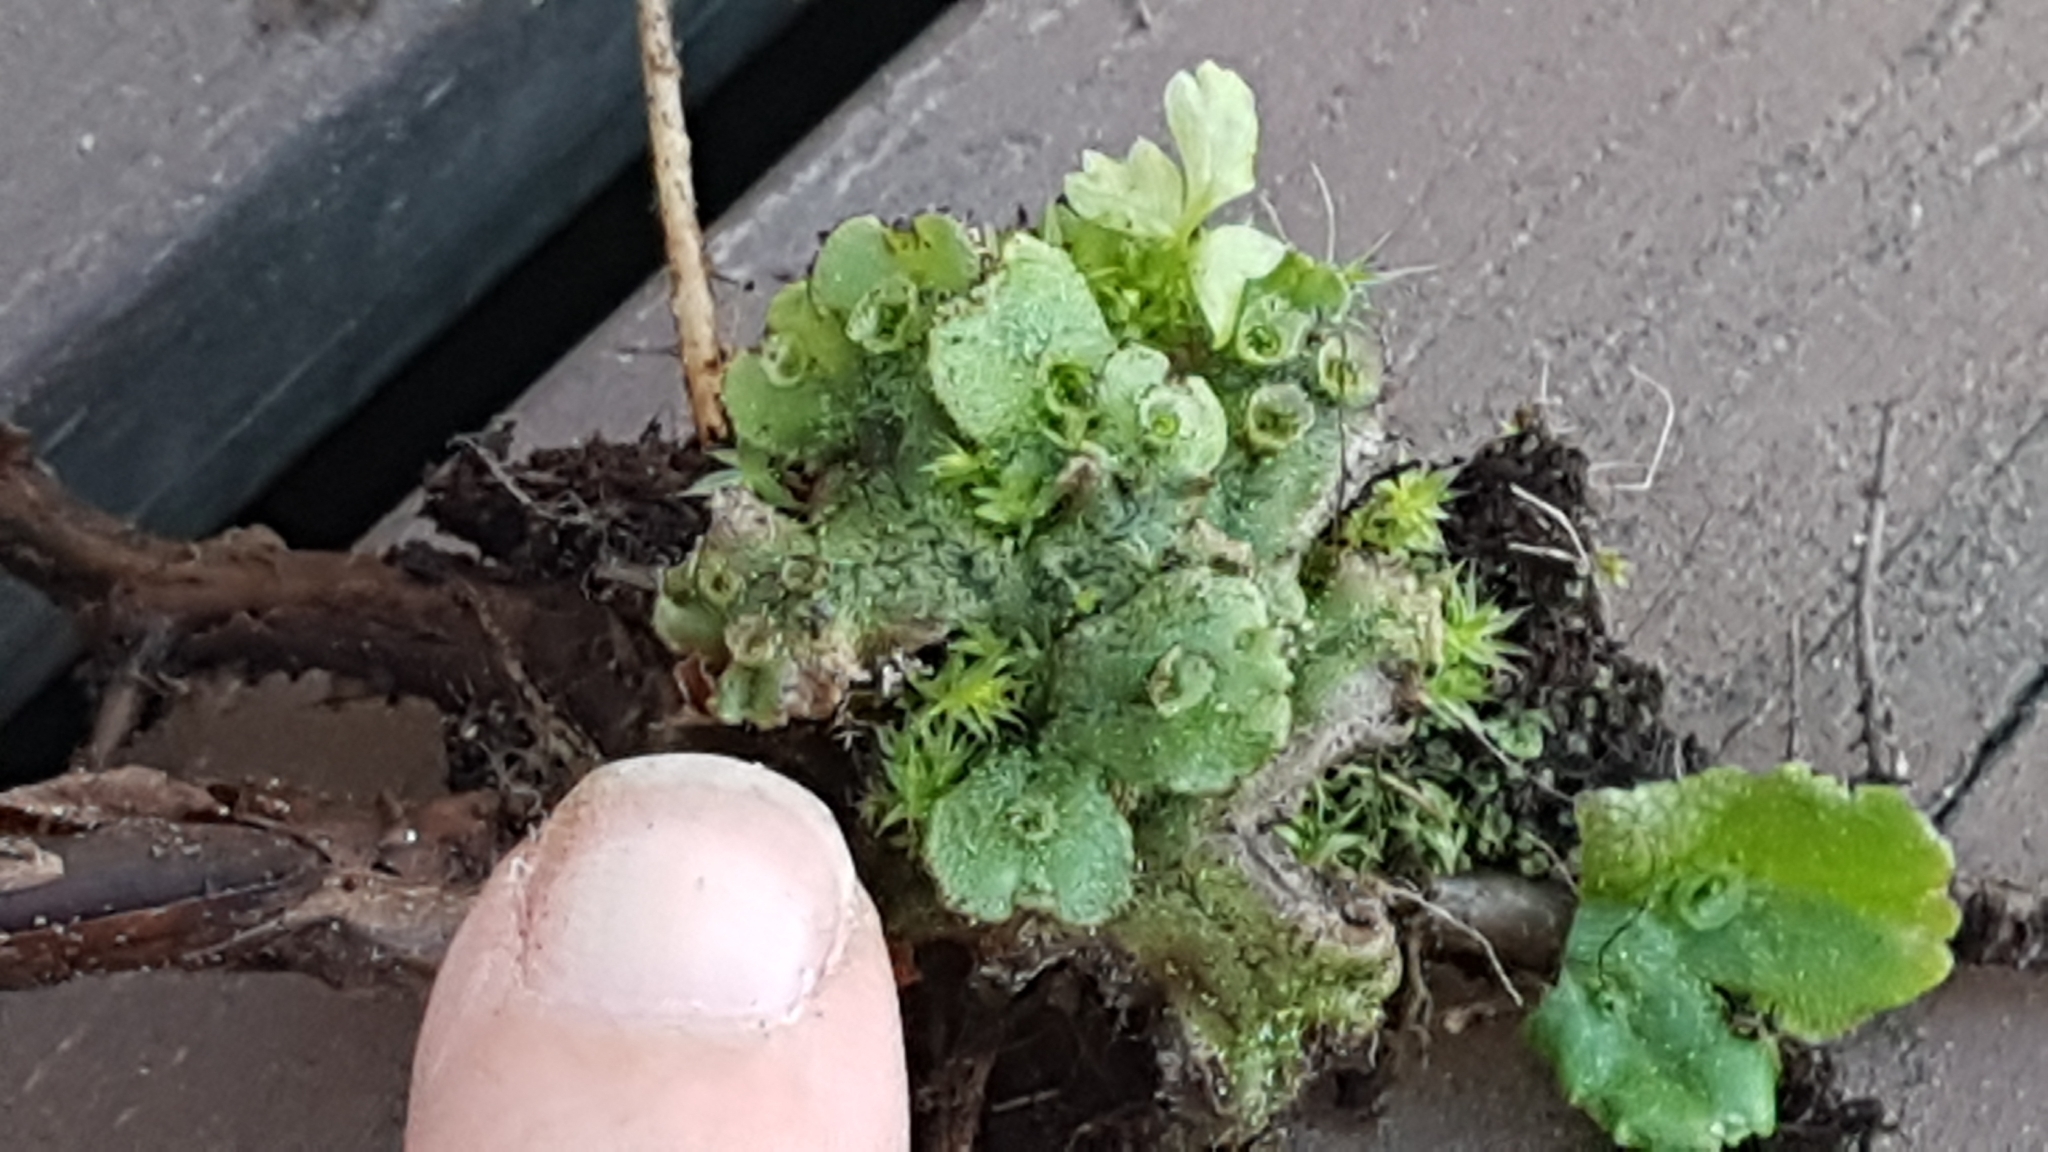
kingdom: Plantae
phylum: Marchantiophyta
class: Marchantiopsida
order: Marchantiales
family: Marchantiaceae
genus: Marchantia
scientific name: Marchantia polymorpha
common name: Common liverwort
